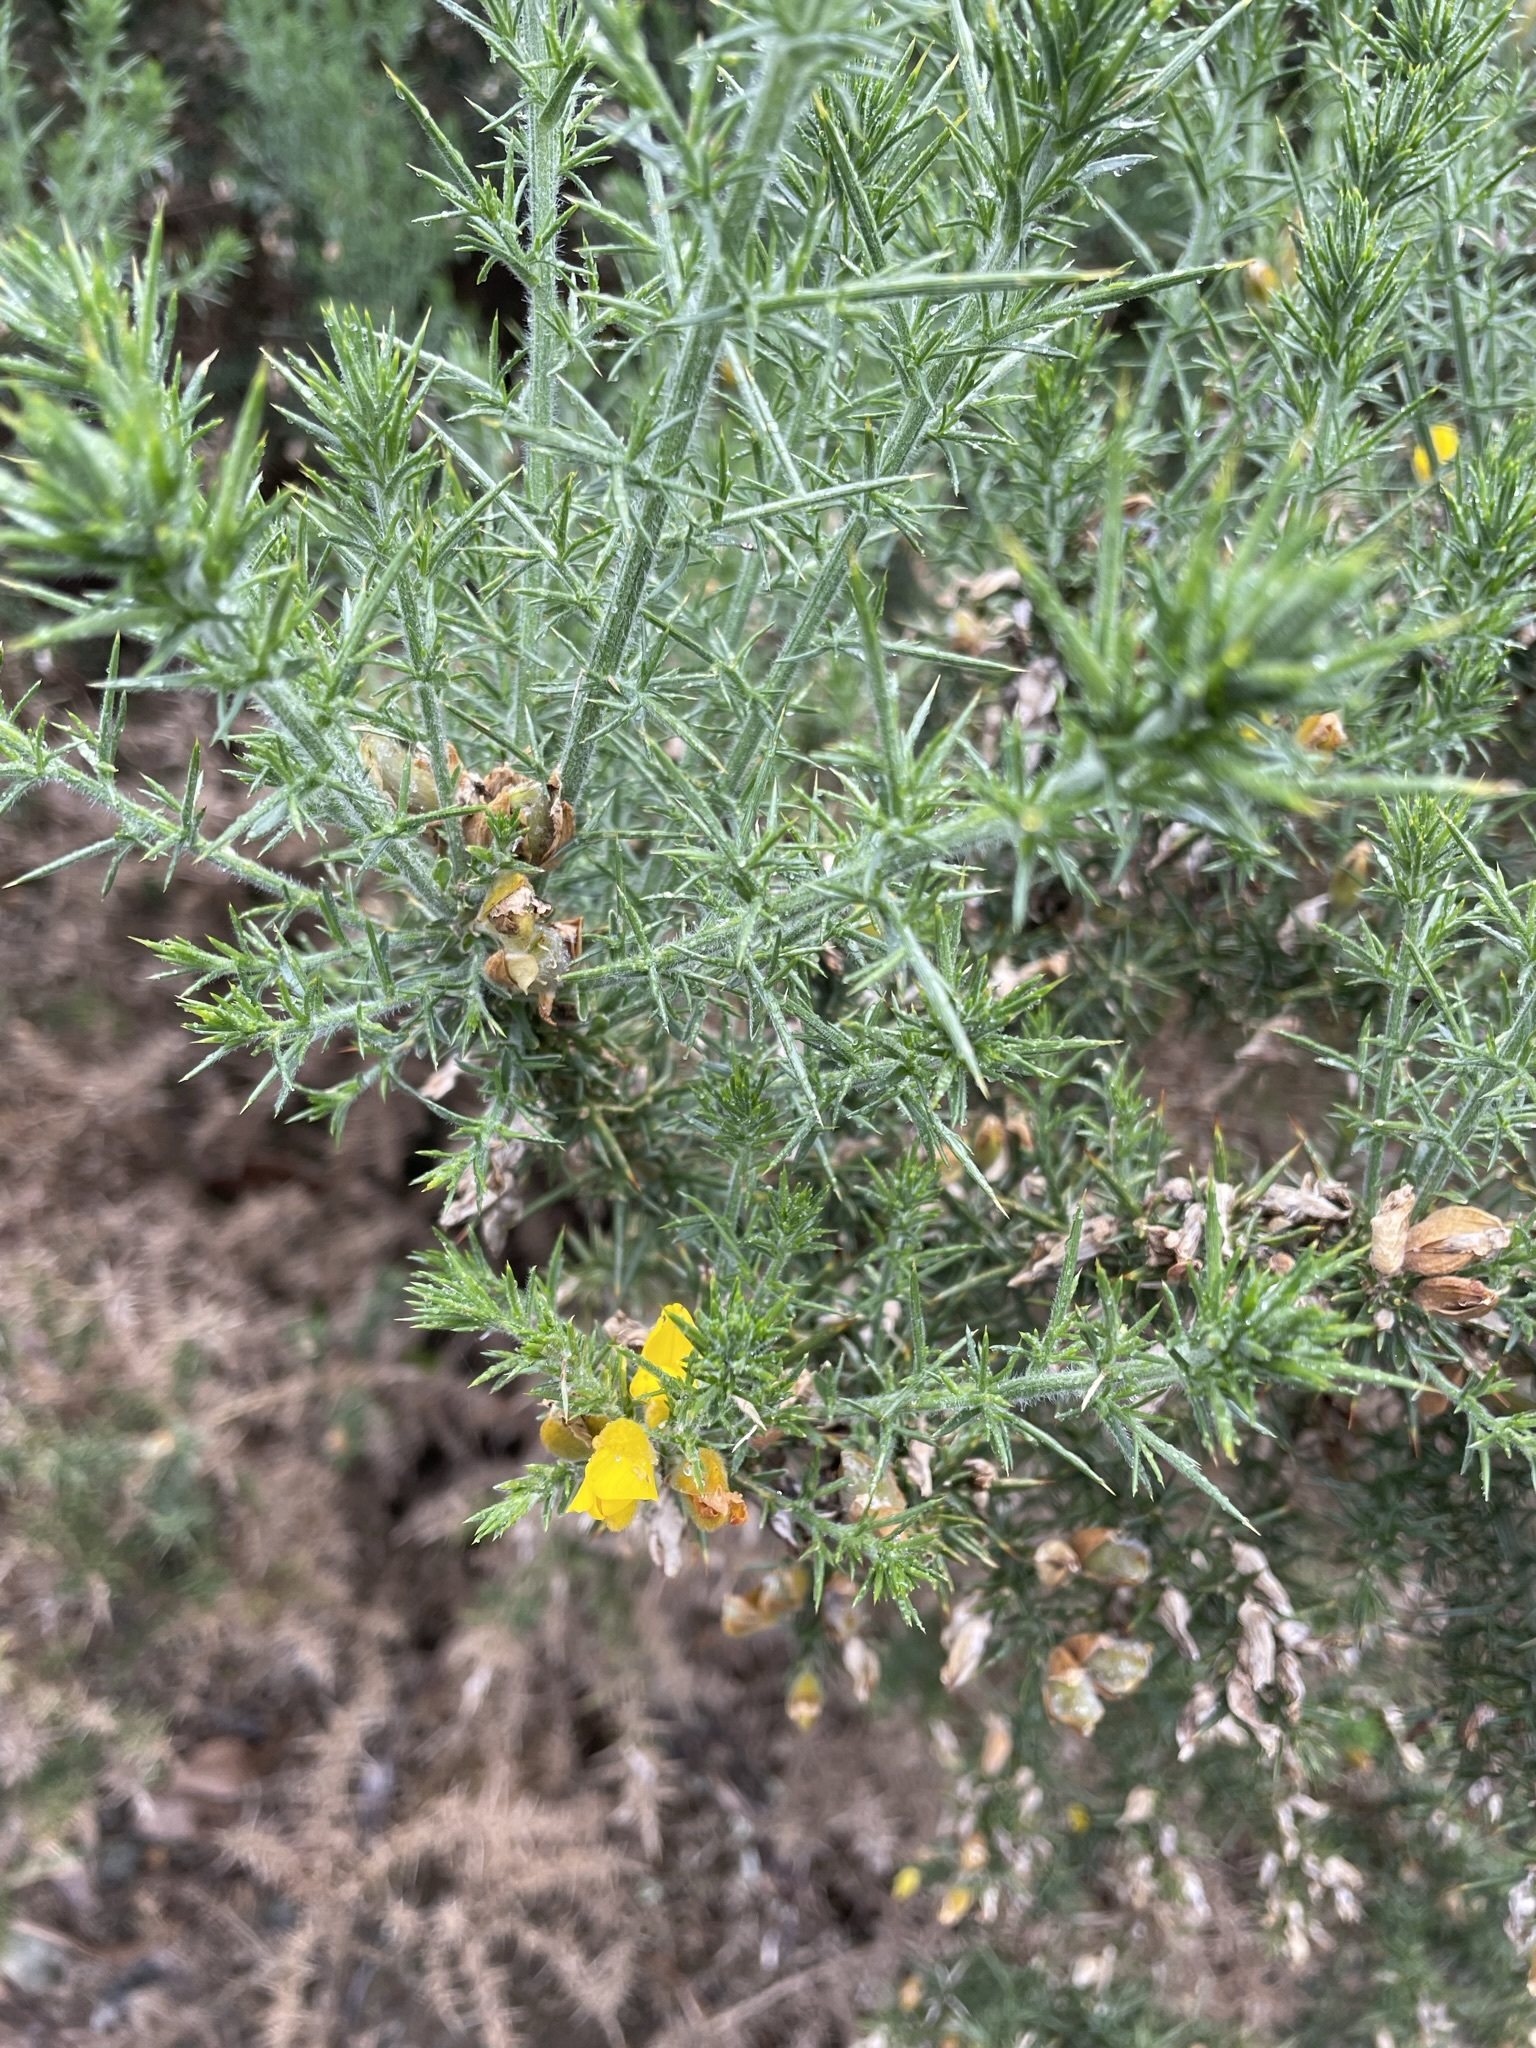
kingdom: Plantae
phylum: Tracheophyta
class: Magnoliopsida
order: Fabales
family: Fabaceae
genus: Ulex
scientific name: Ulex europaeus
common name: Common gorse
